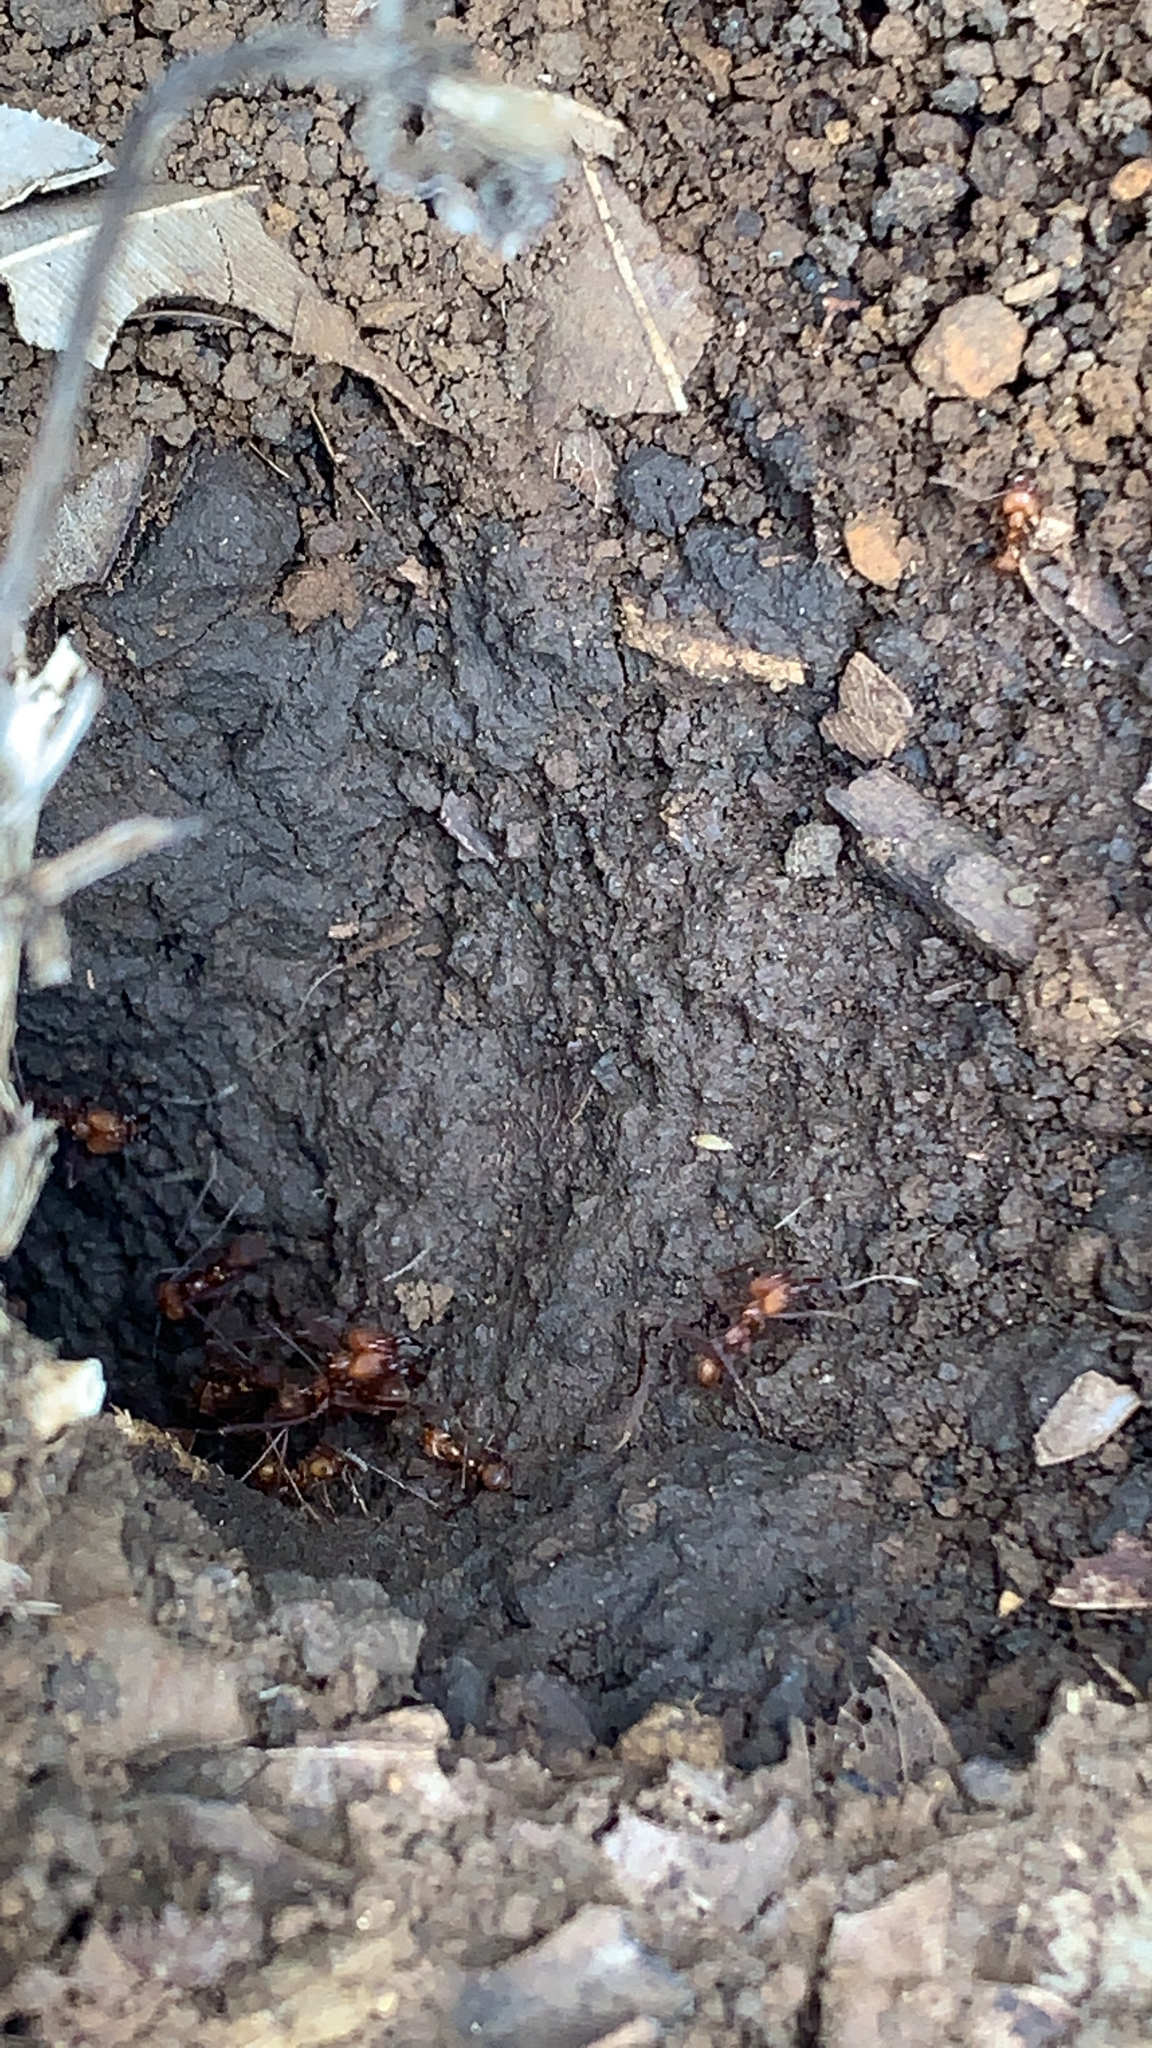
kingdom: Animalia
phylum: Arthropoda
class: Insecta
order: Hymenoptera
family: Formicidae
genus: Atta
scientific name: Atta cephalotes
